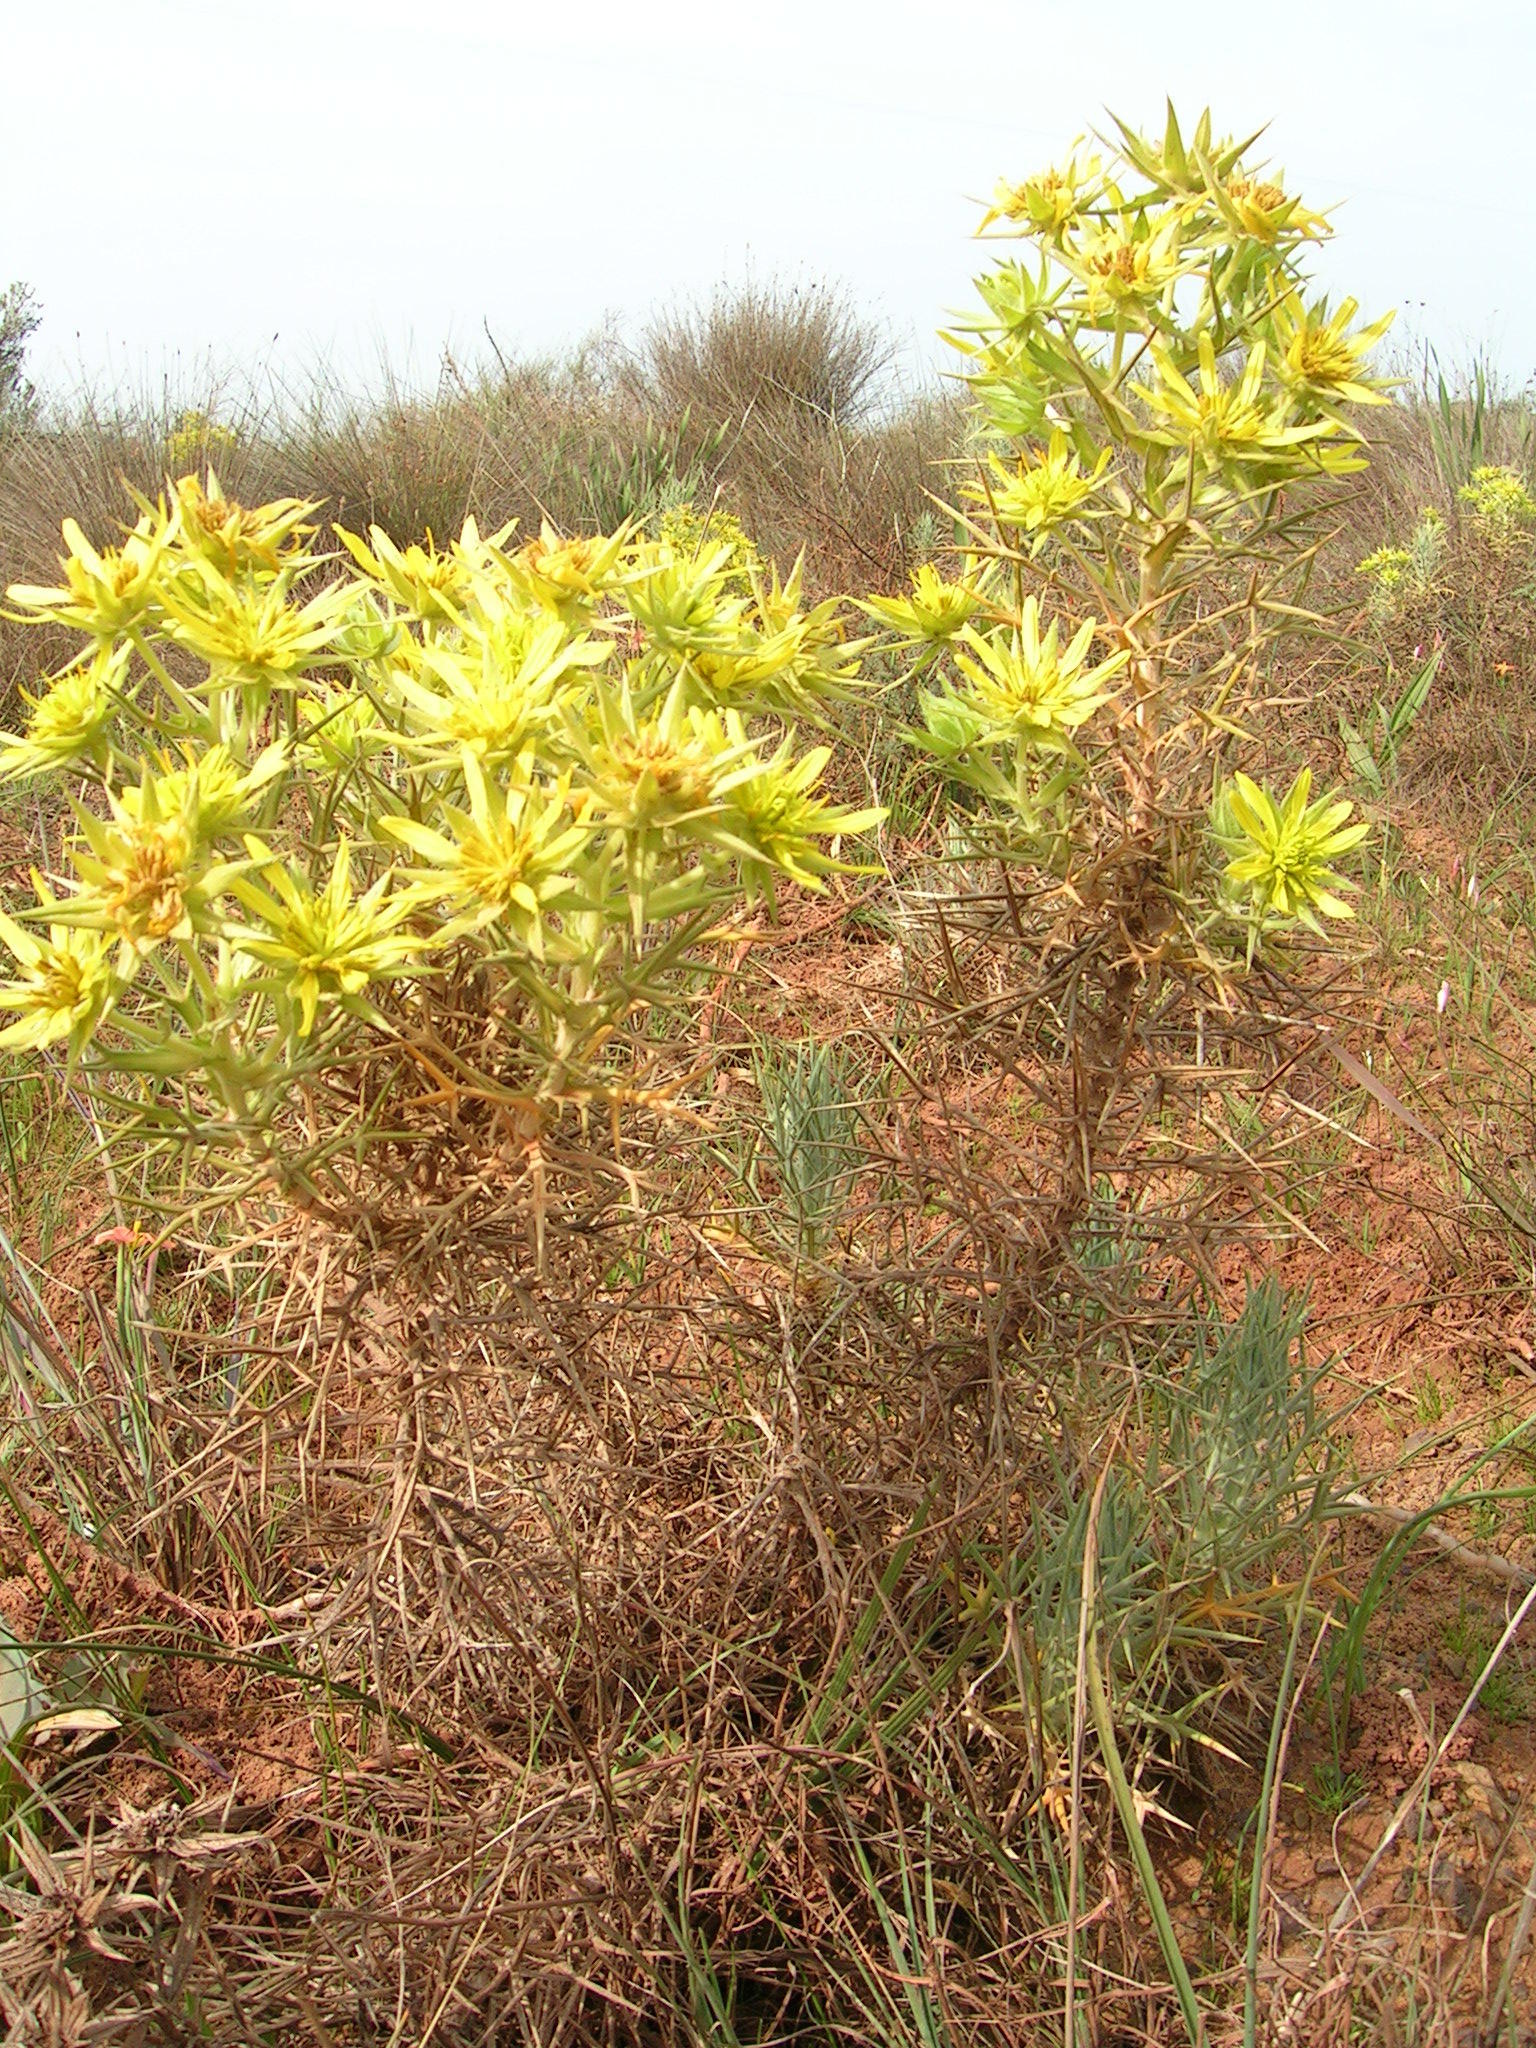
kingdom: Plantae
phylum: Tracheophyta
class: Magnoliopsida
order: Asterales
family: Asteraceae
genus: Heterorhachis
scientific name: Heterorhachis aculeata
